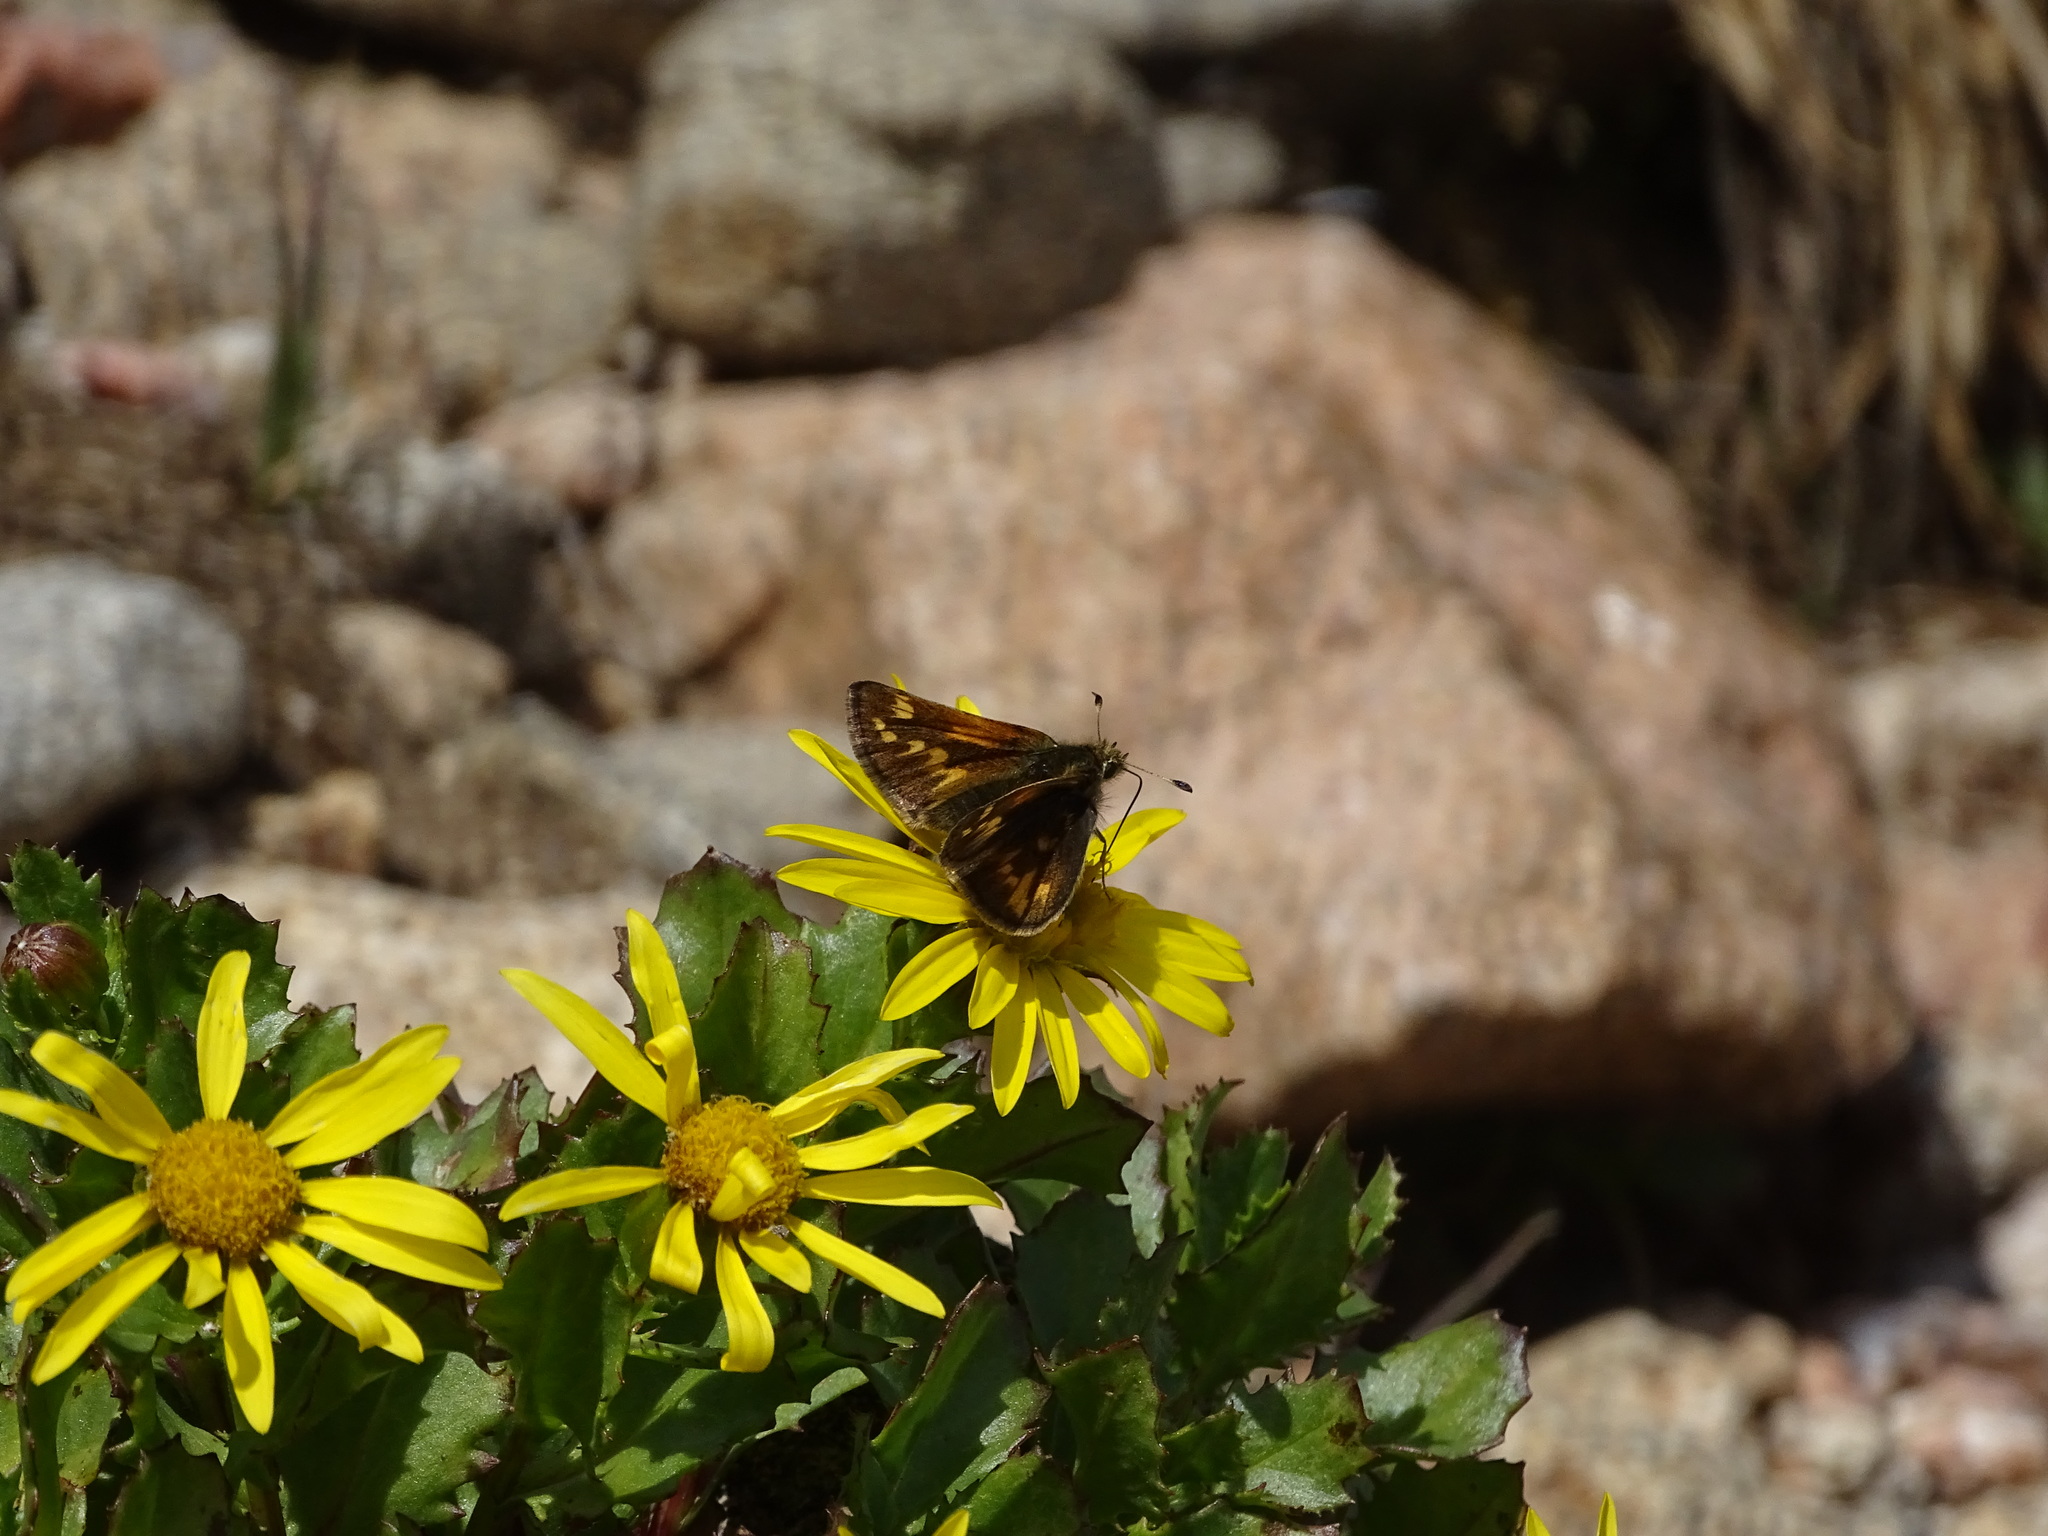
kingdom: Animalia
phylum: Arthropoda
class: Insecta
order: Lepidoptera
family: Hesperiidae
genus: Polites
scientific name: Polites sabuleti
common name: Sandhill skipper
